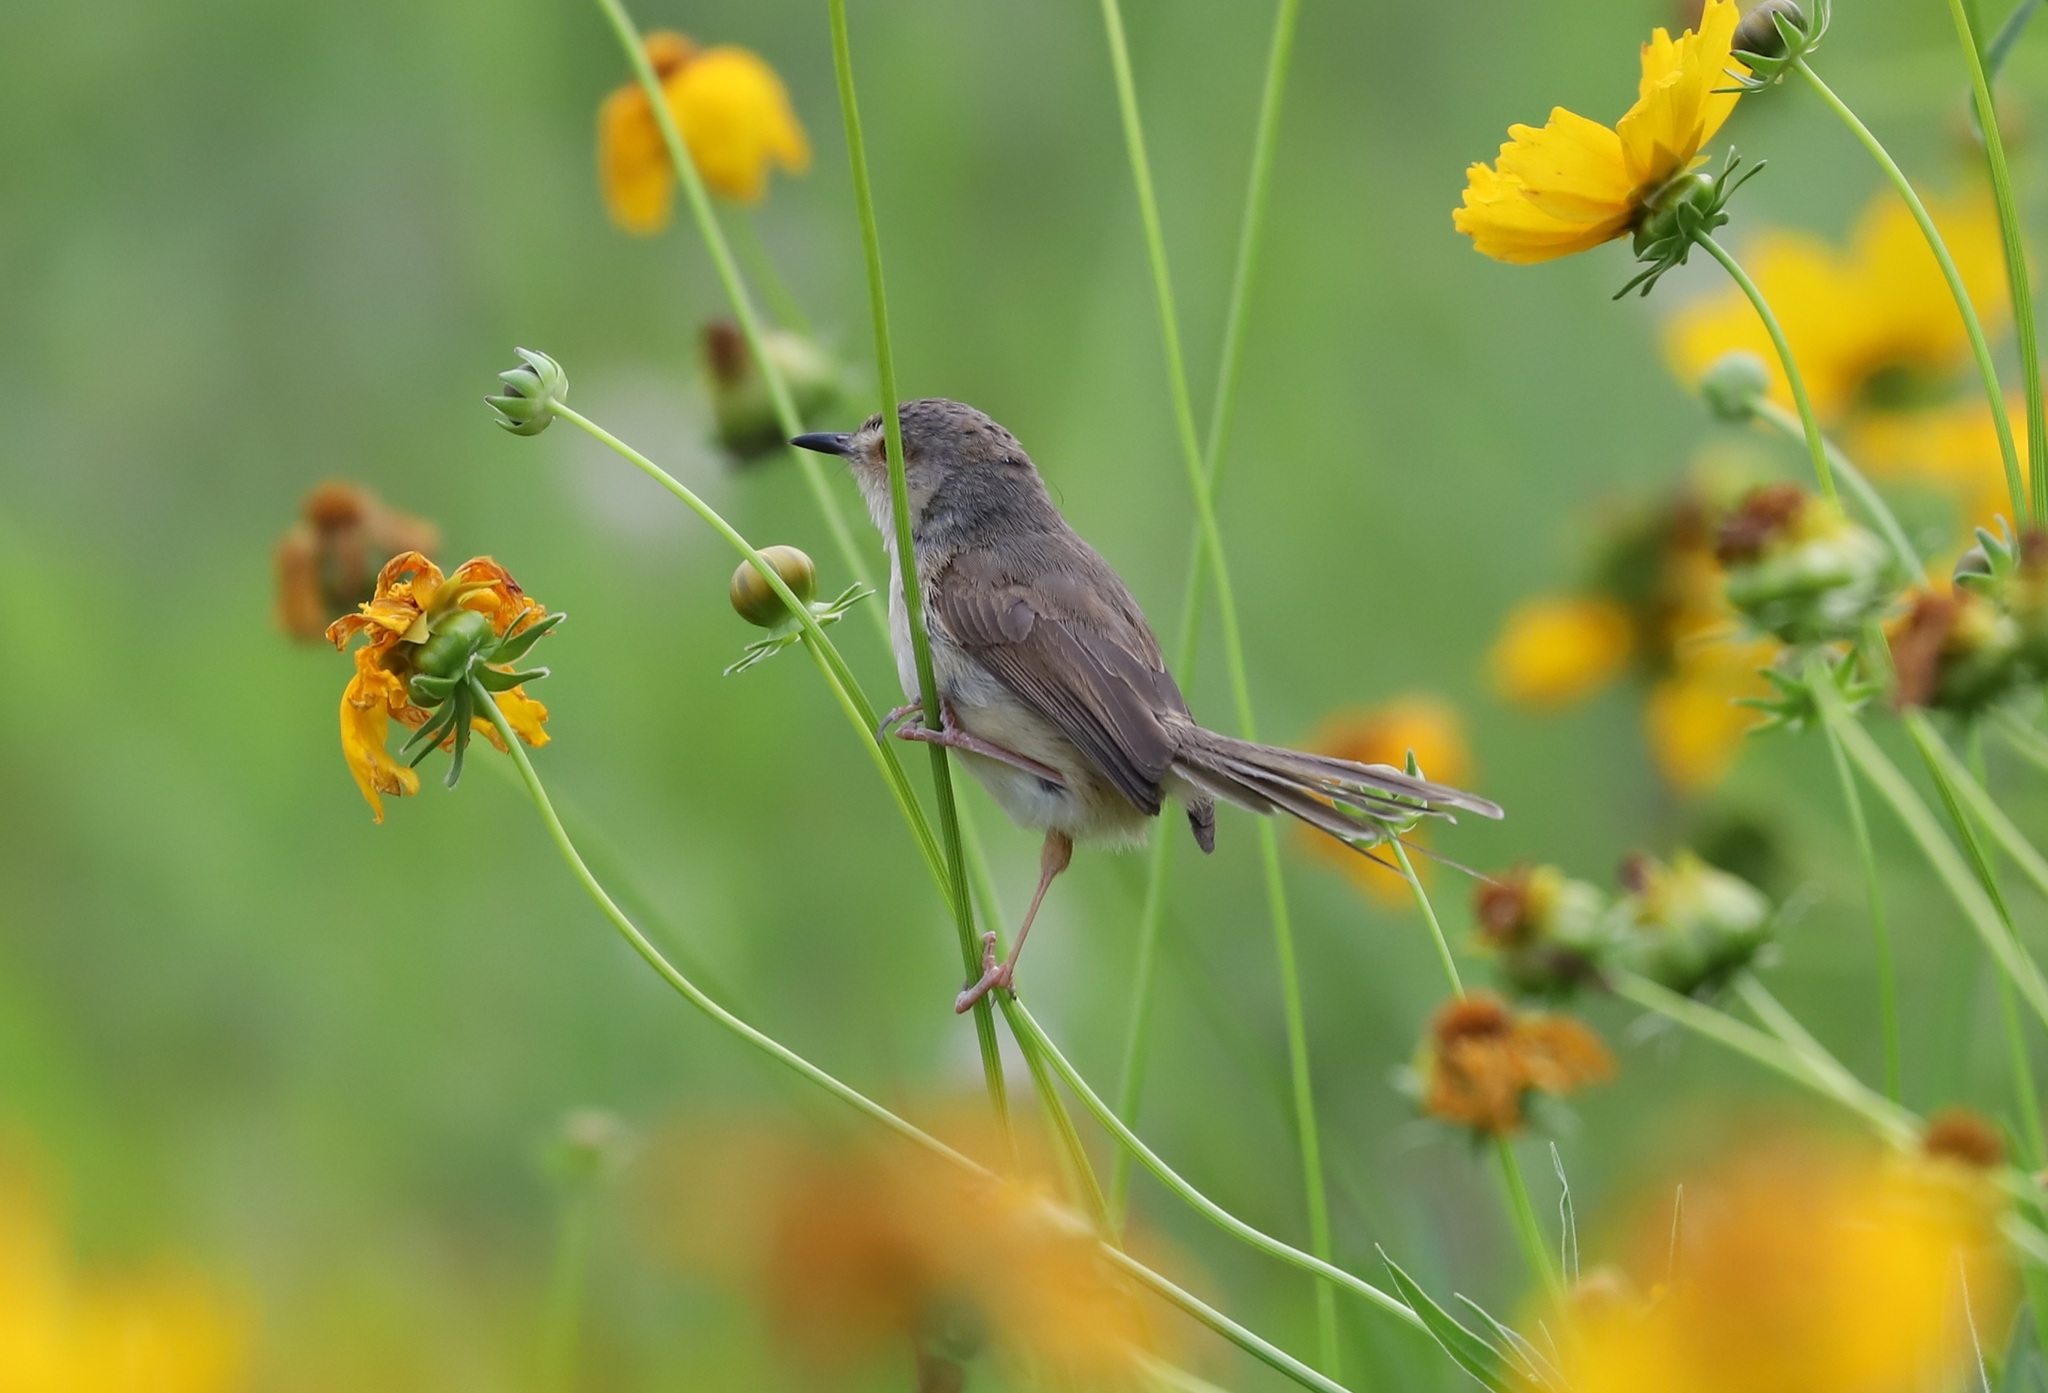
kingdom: Animalia
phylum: Chordata
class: Aves
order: Passeriformes
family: Cisticolidae
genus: Prinia
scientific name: Prinia inornata
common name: Plain prinia
